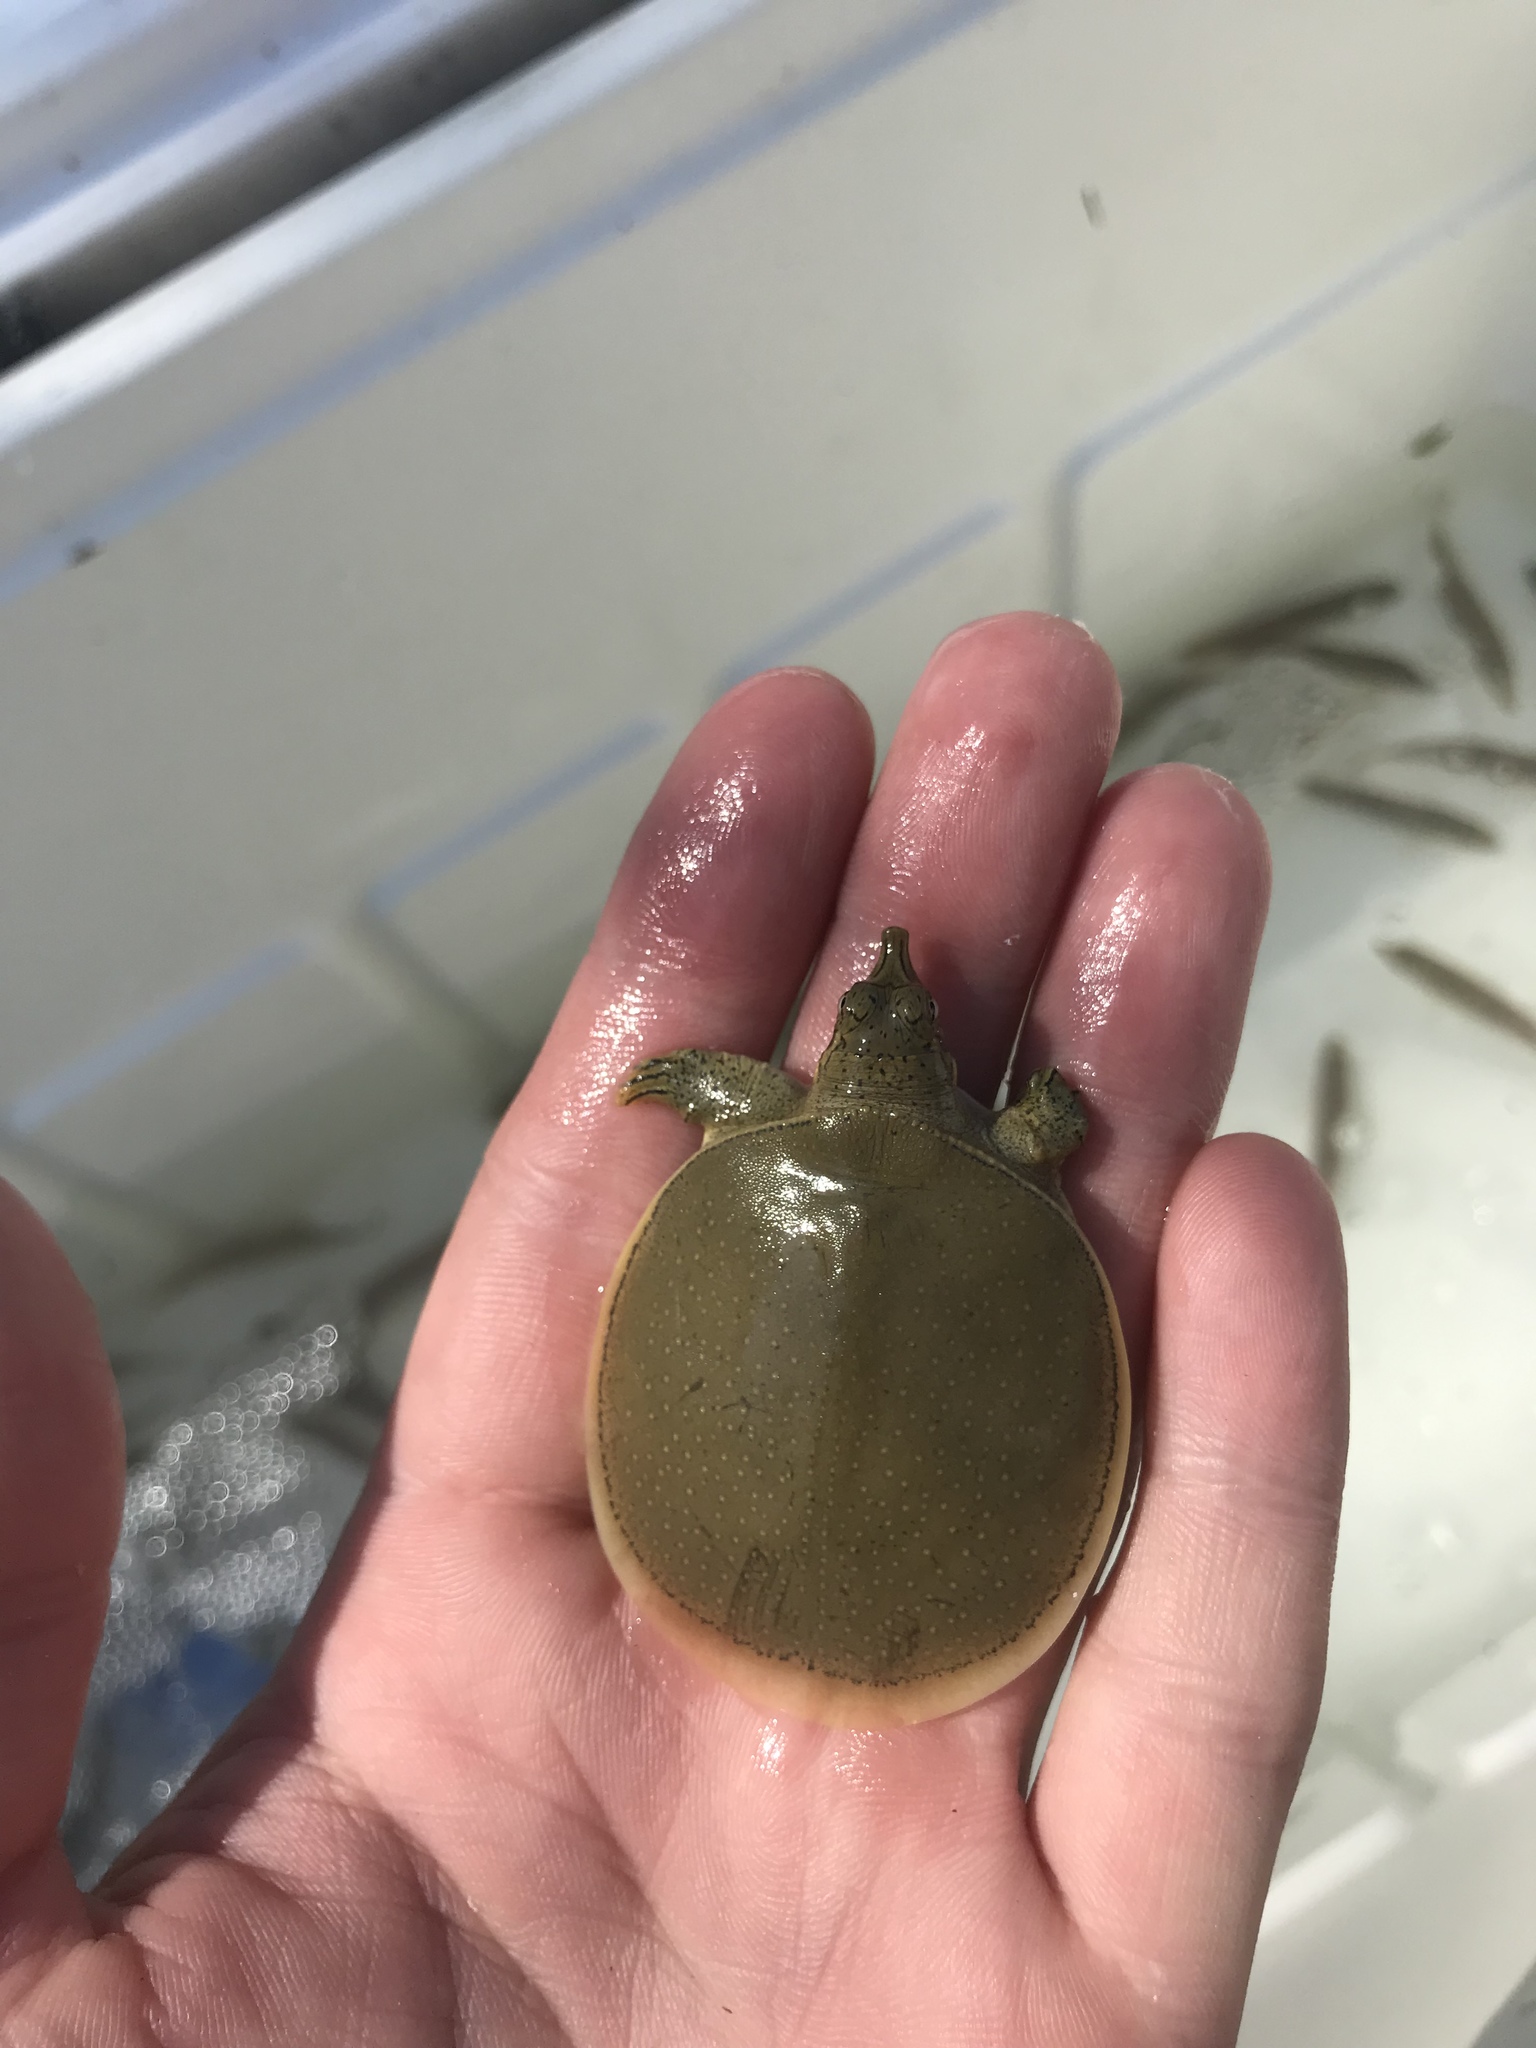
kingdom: Animalia
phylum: Chordata
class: Testudines
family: Trionychidae
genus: Apalone
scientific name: Apalone spinifera
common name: Spiny softshell turtle
